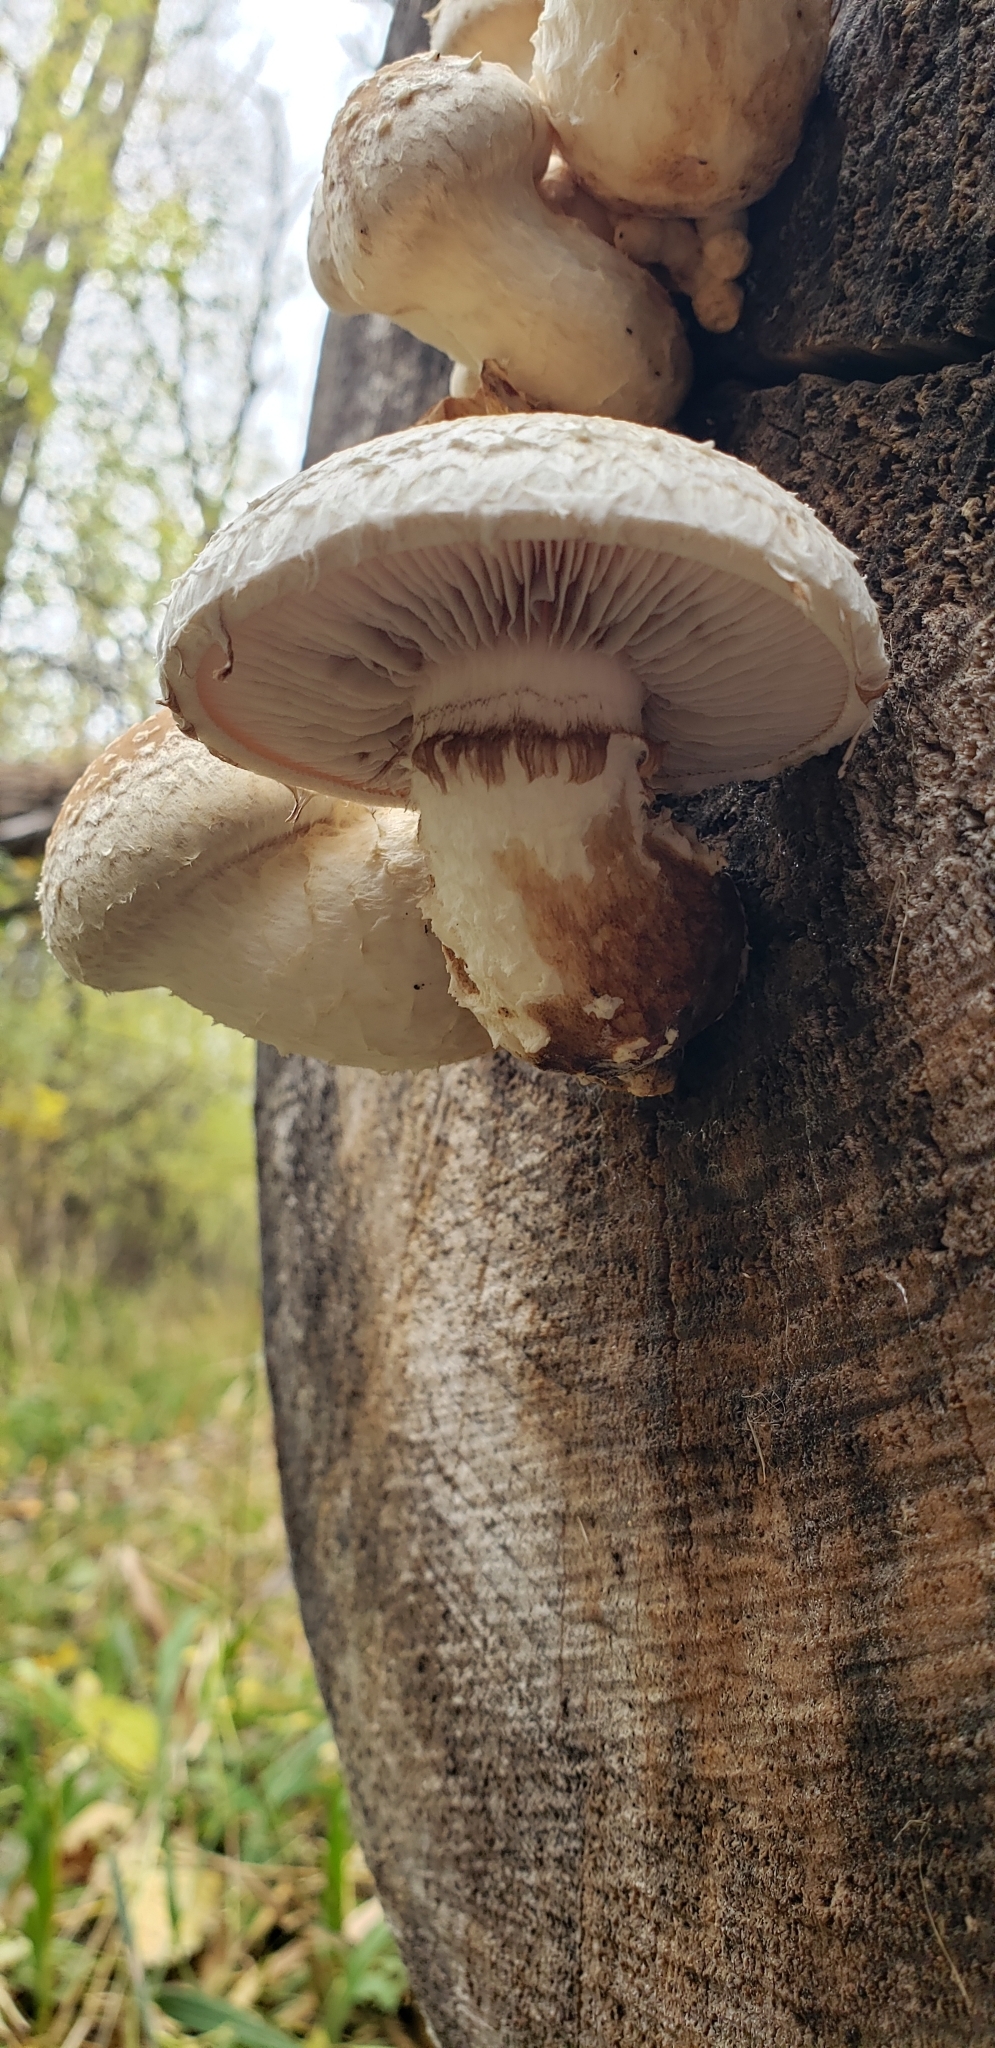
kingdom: Fungi
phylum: Basidiomycota
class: Agaricomycetes
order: Agaricales
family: Strophariaceae
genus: Pholiota
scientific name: Pholiota populnea
